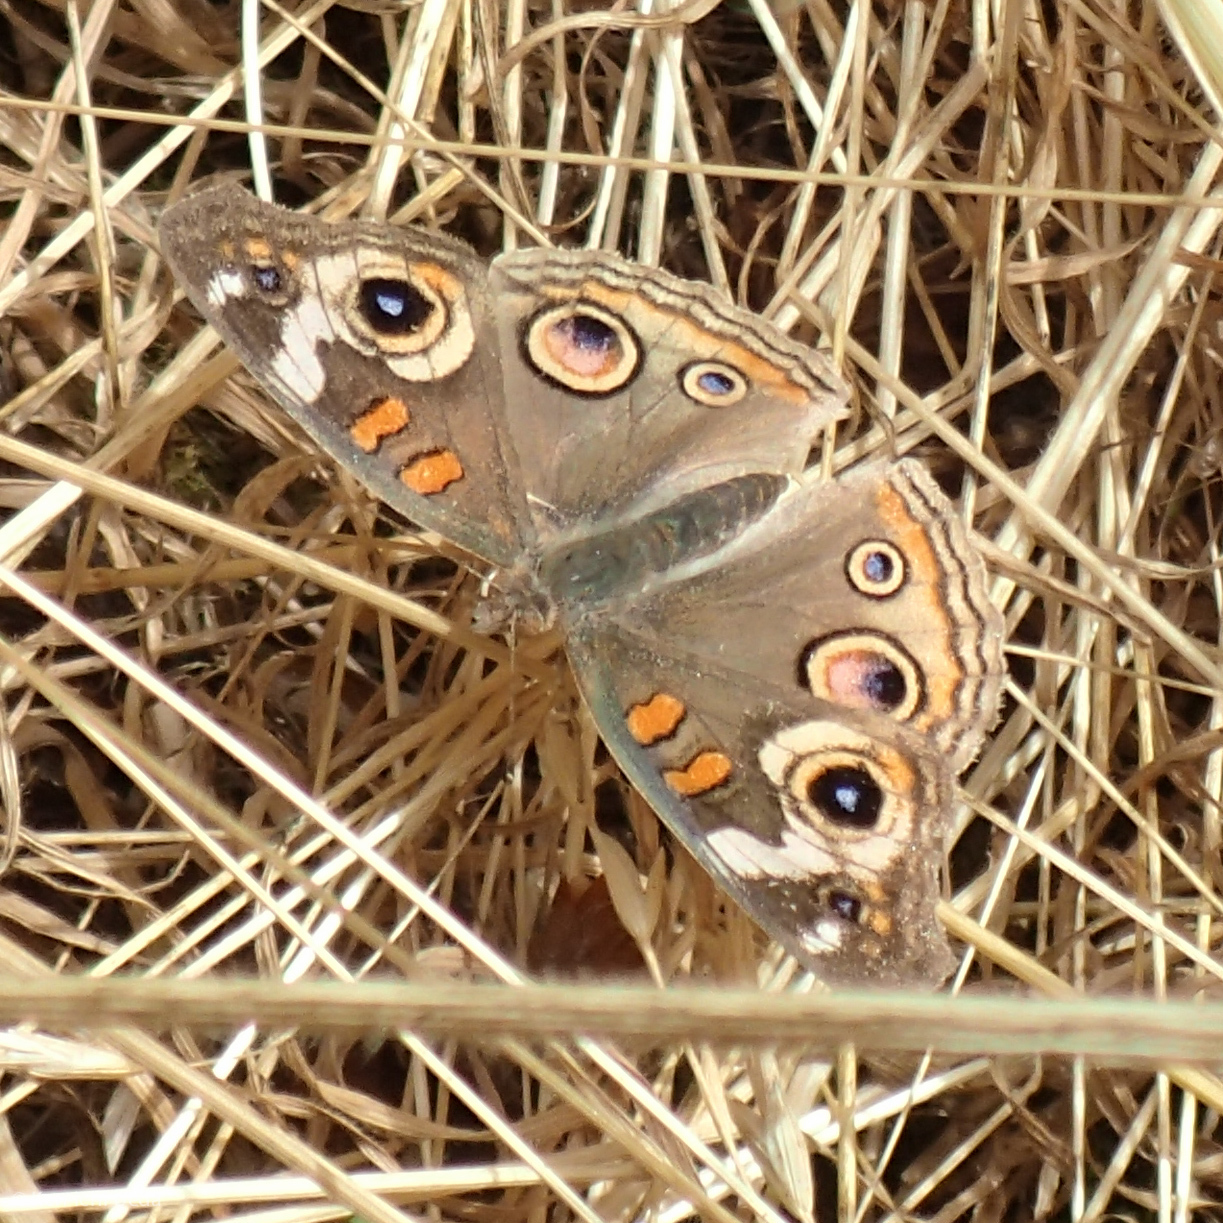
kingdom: Animalia
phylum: Arthropoda
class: Insecta
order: Lepidoptera
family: Nymphalidae
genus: Junonia
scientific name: Junonia grisea
